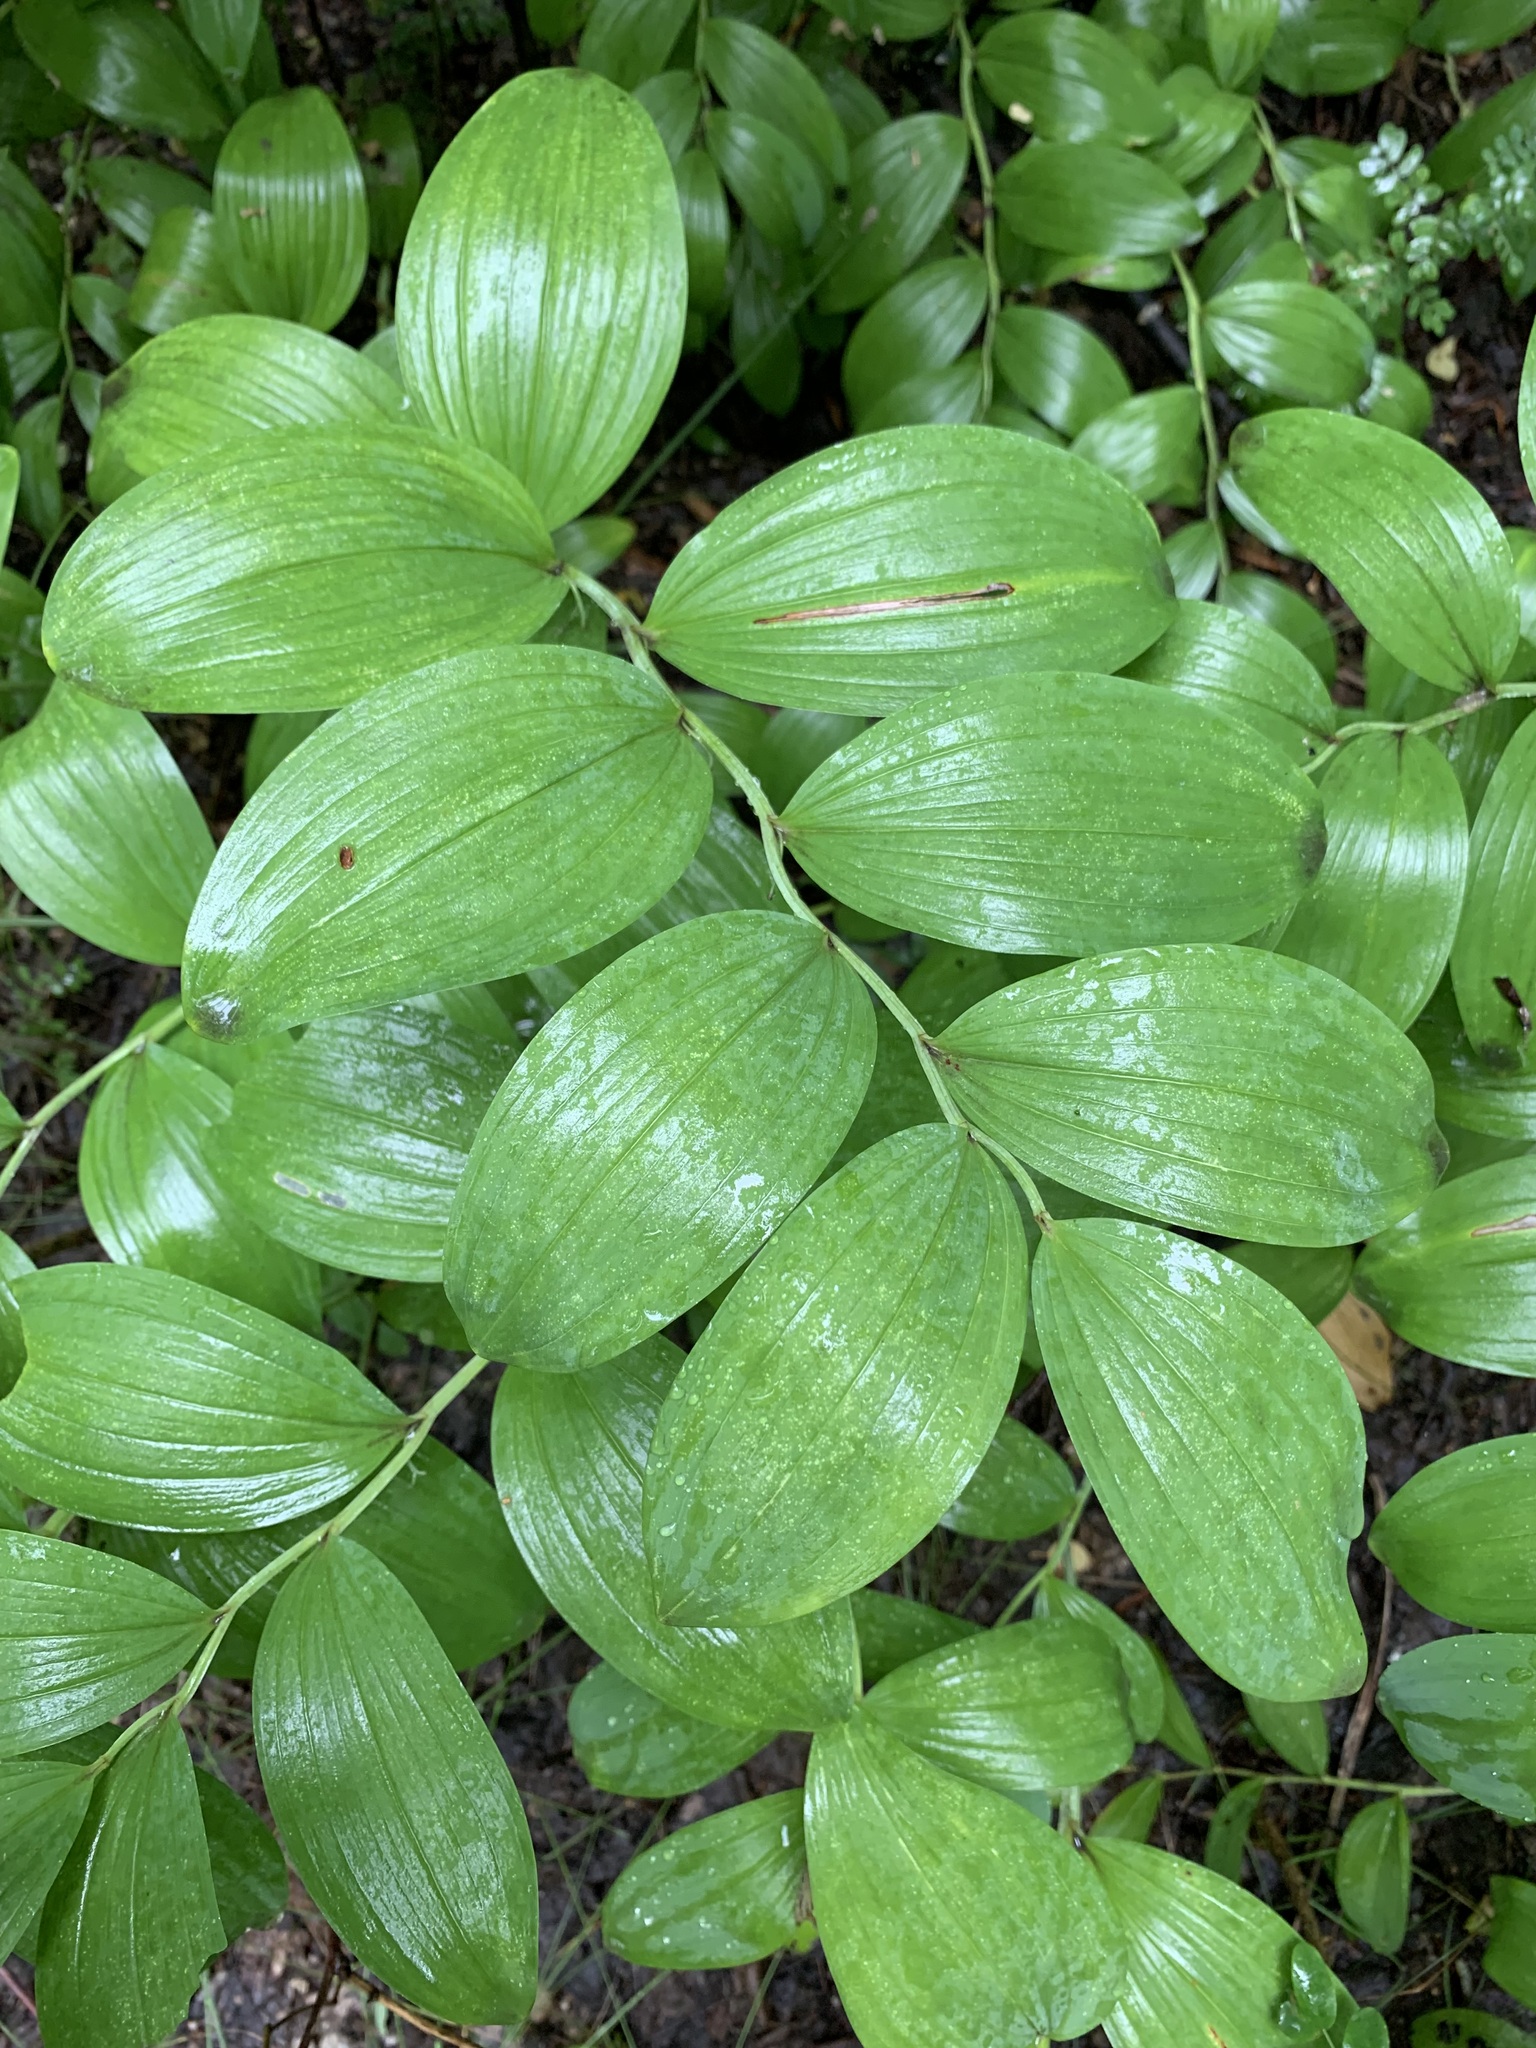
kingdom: Plantae
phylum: Tracheophyta
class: Liliopsida
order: Asparagales
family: Asparagaceae
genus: Polygonatum
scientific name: Polygonatum odoratum
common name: Angular solomon's-seal
